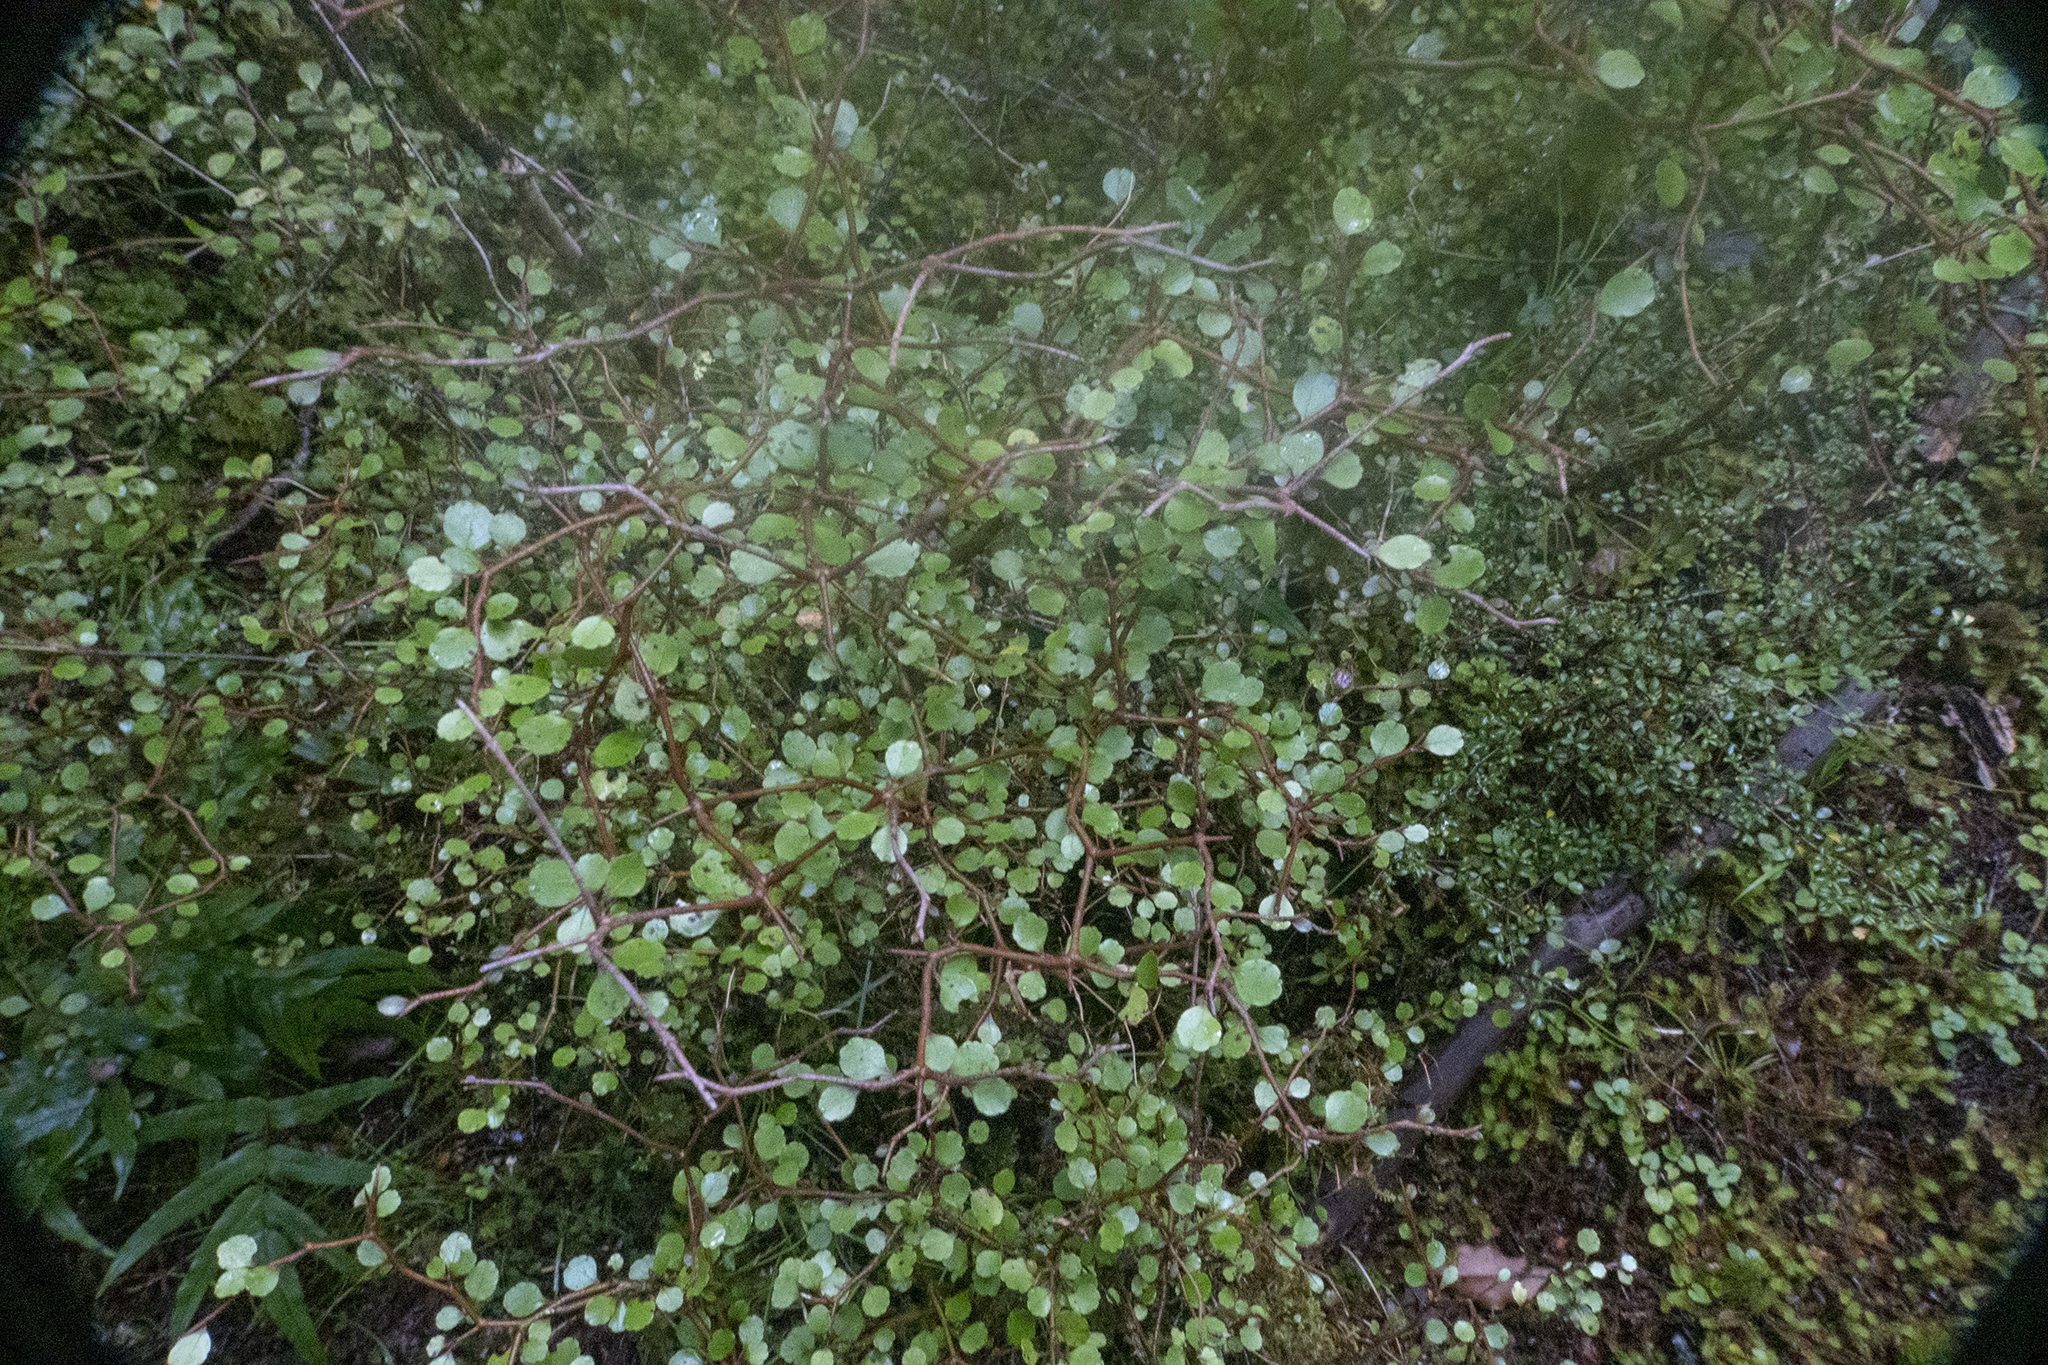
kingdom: Plantae
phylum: Tracheophyta
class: Magnoliopsida
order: Apiales
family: Araliaceae
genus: Raukaua
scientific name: Raukaua anomalus
